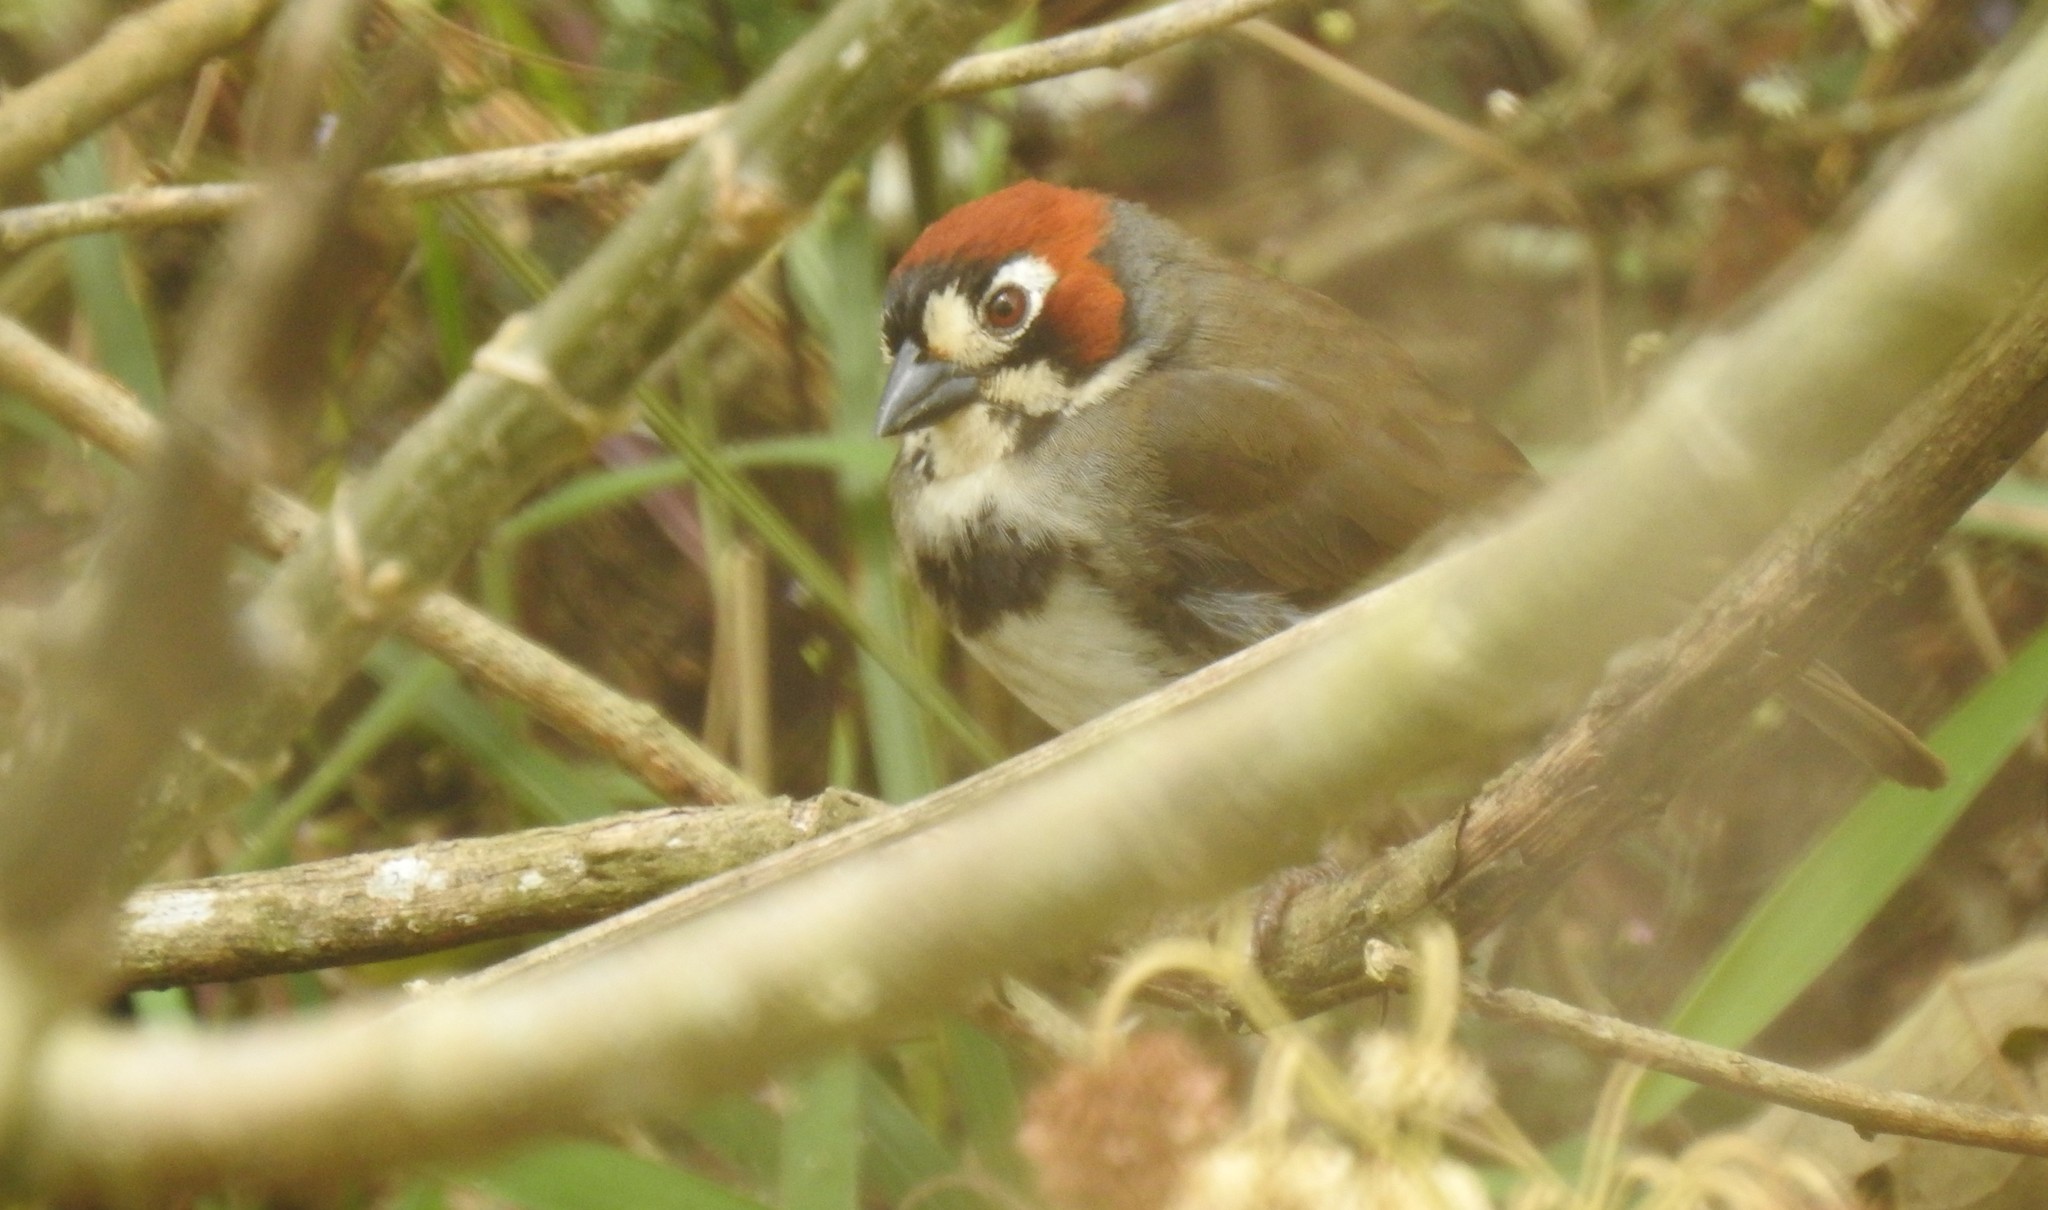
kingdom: Animalia
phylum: Chordata
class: Aves
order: Passeriformes
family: Passerellidae
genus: Melozone
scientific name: Melozone cabanisi
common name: Cabanis's ground sparrow
